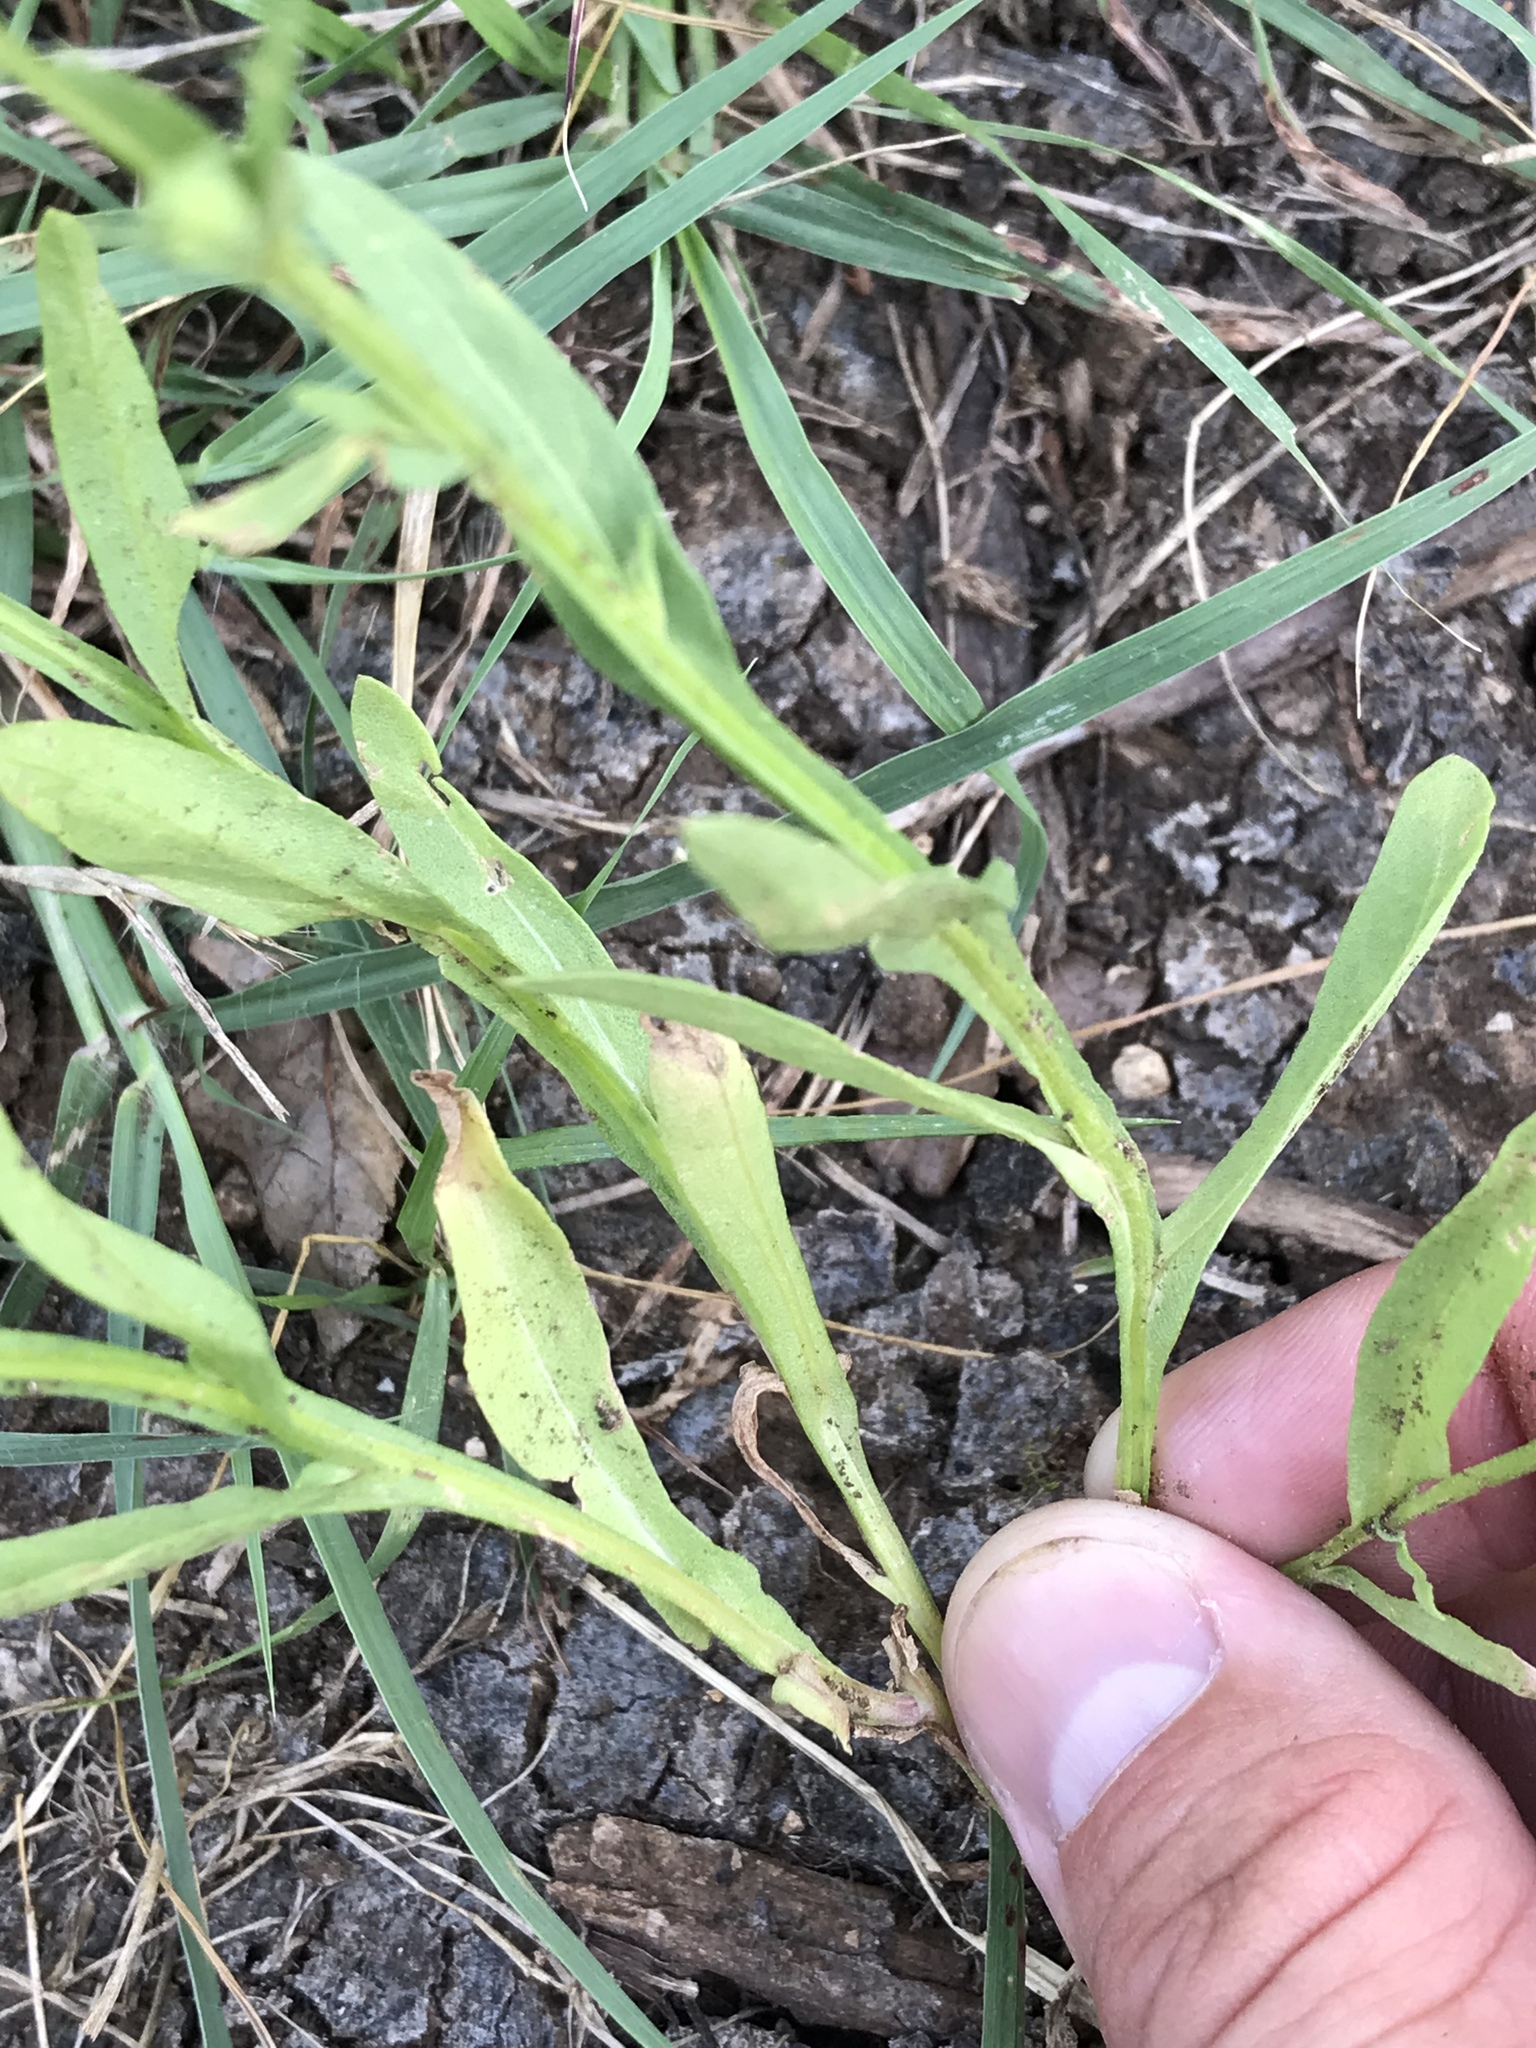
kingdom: Plantae
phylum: Tracheophyta
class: Magnoliopsida
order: Asterales
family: Asteraceae
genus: Helenium
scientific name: Helenium elegans
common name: Pretty sneezeweed
